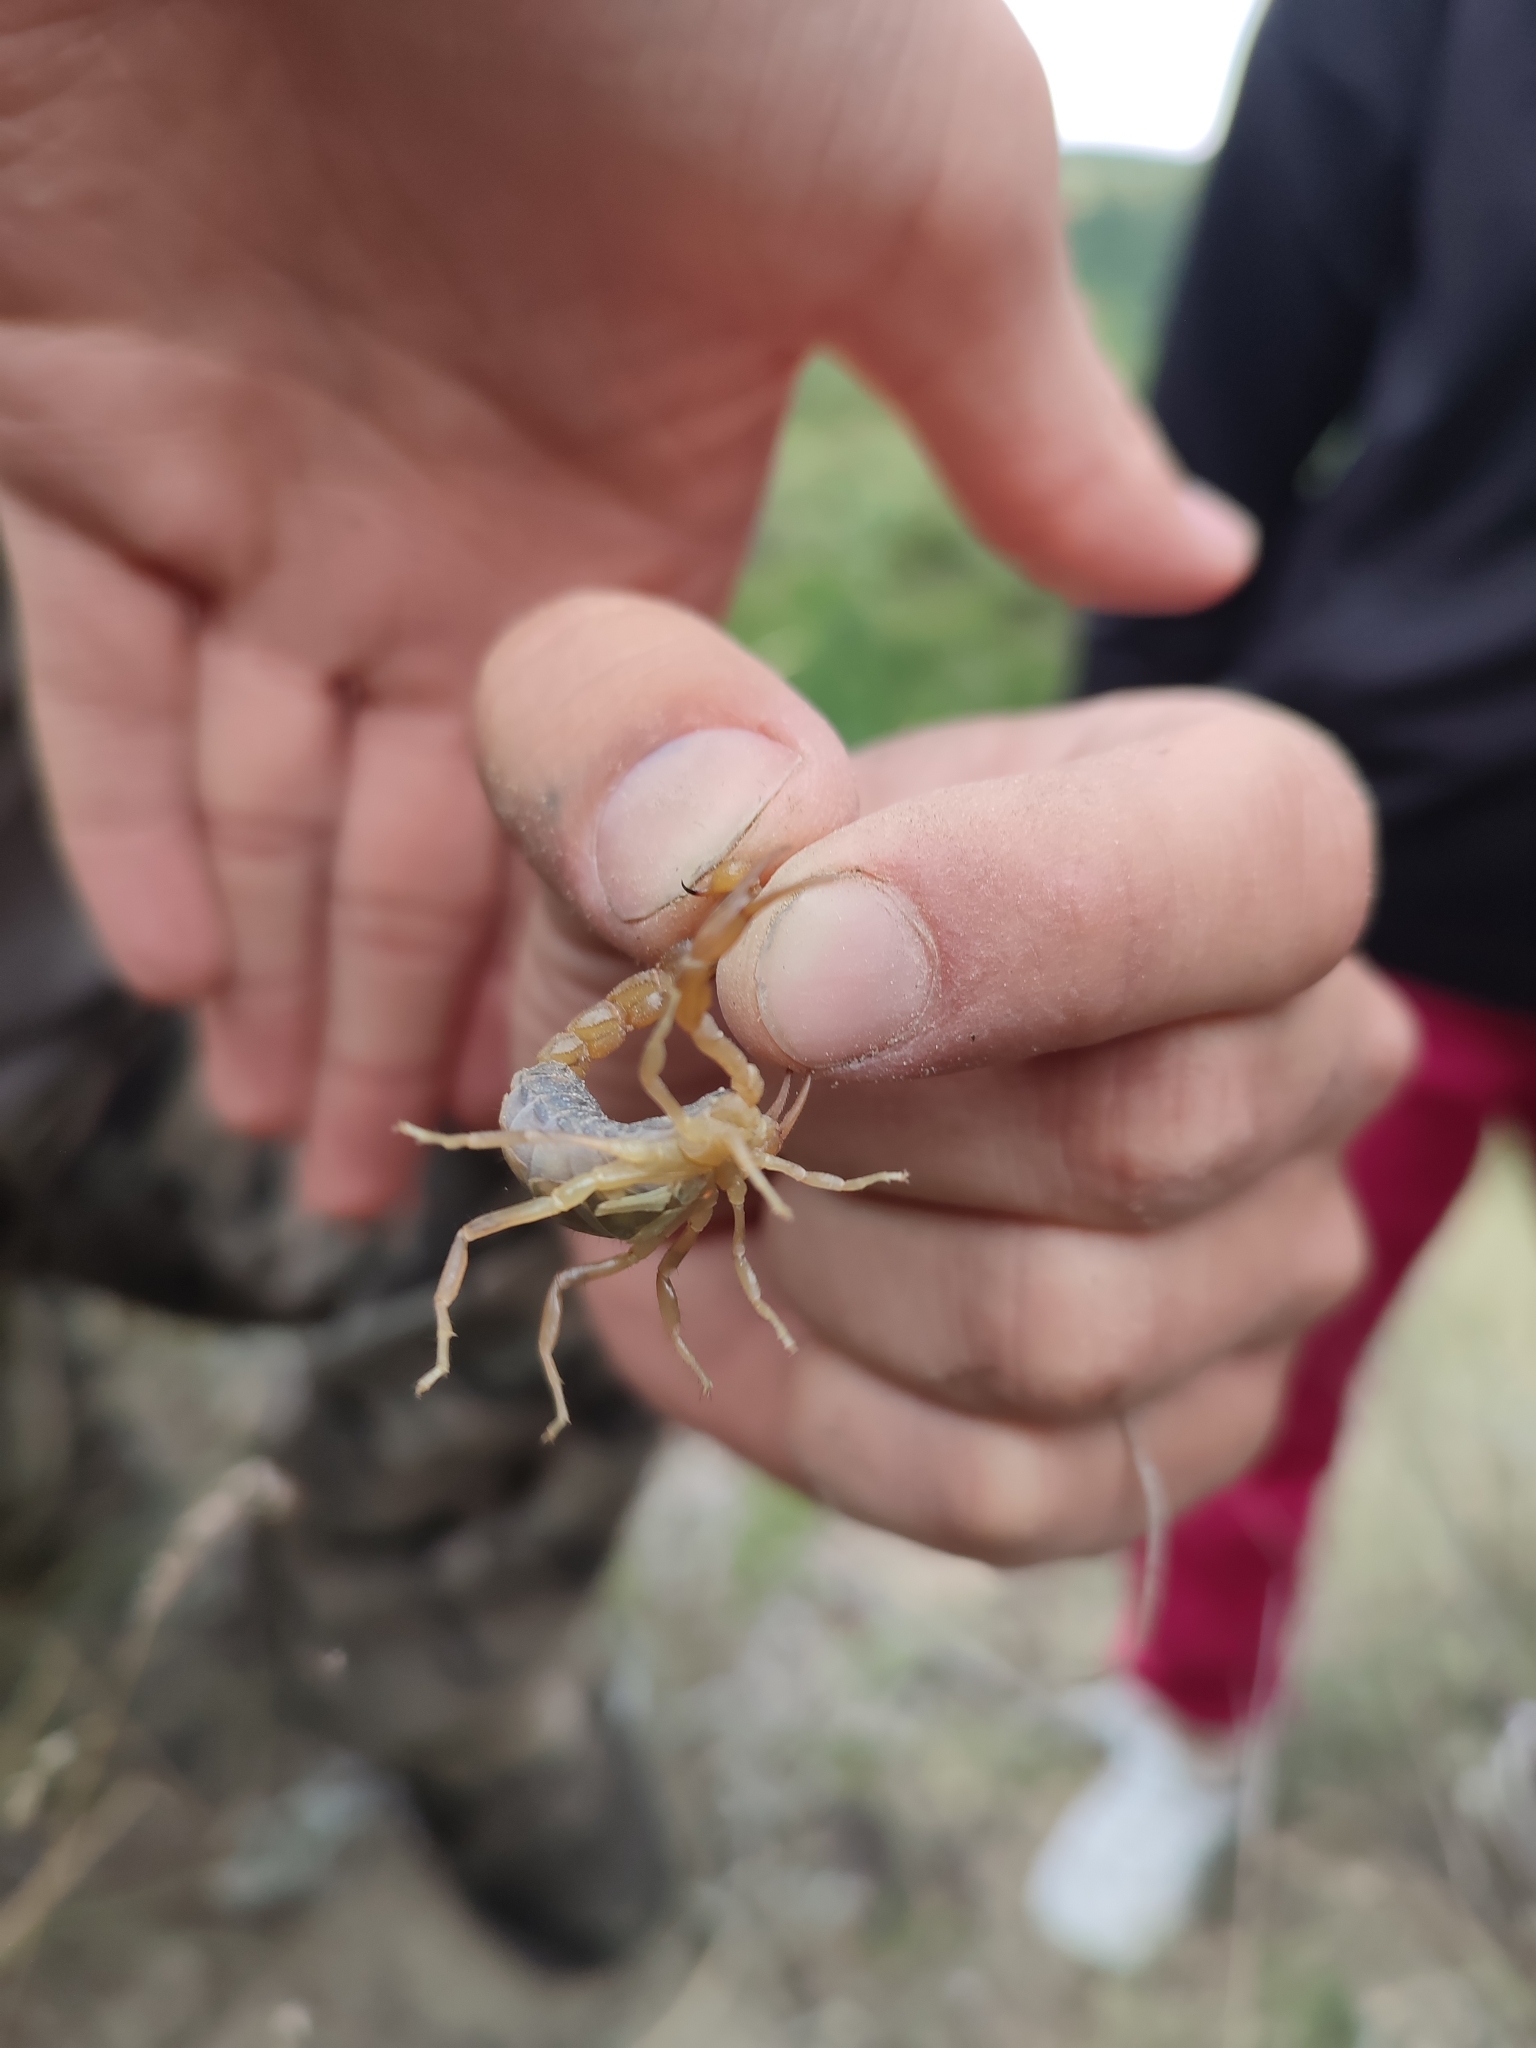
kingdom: Animalia
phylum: Arthropoda
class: Arachnida
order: Scorpiones
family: Buthidae
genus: Mesobuthus
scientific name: Mesobuthus bogdoensis
